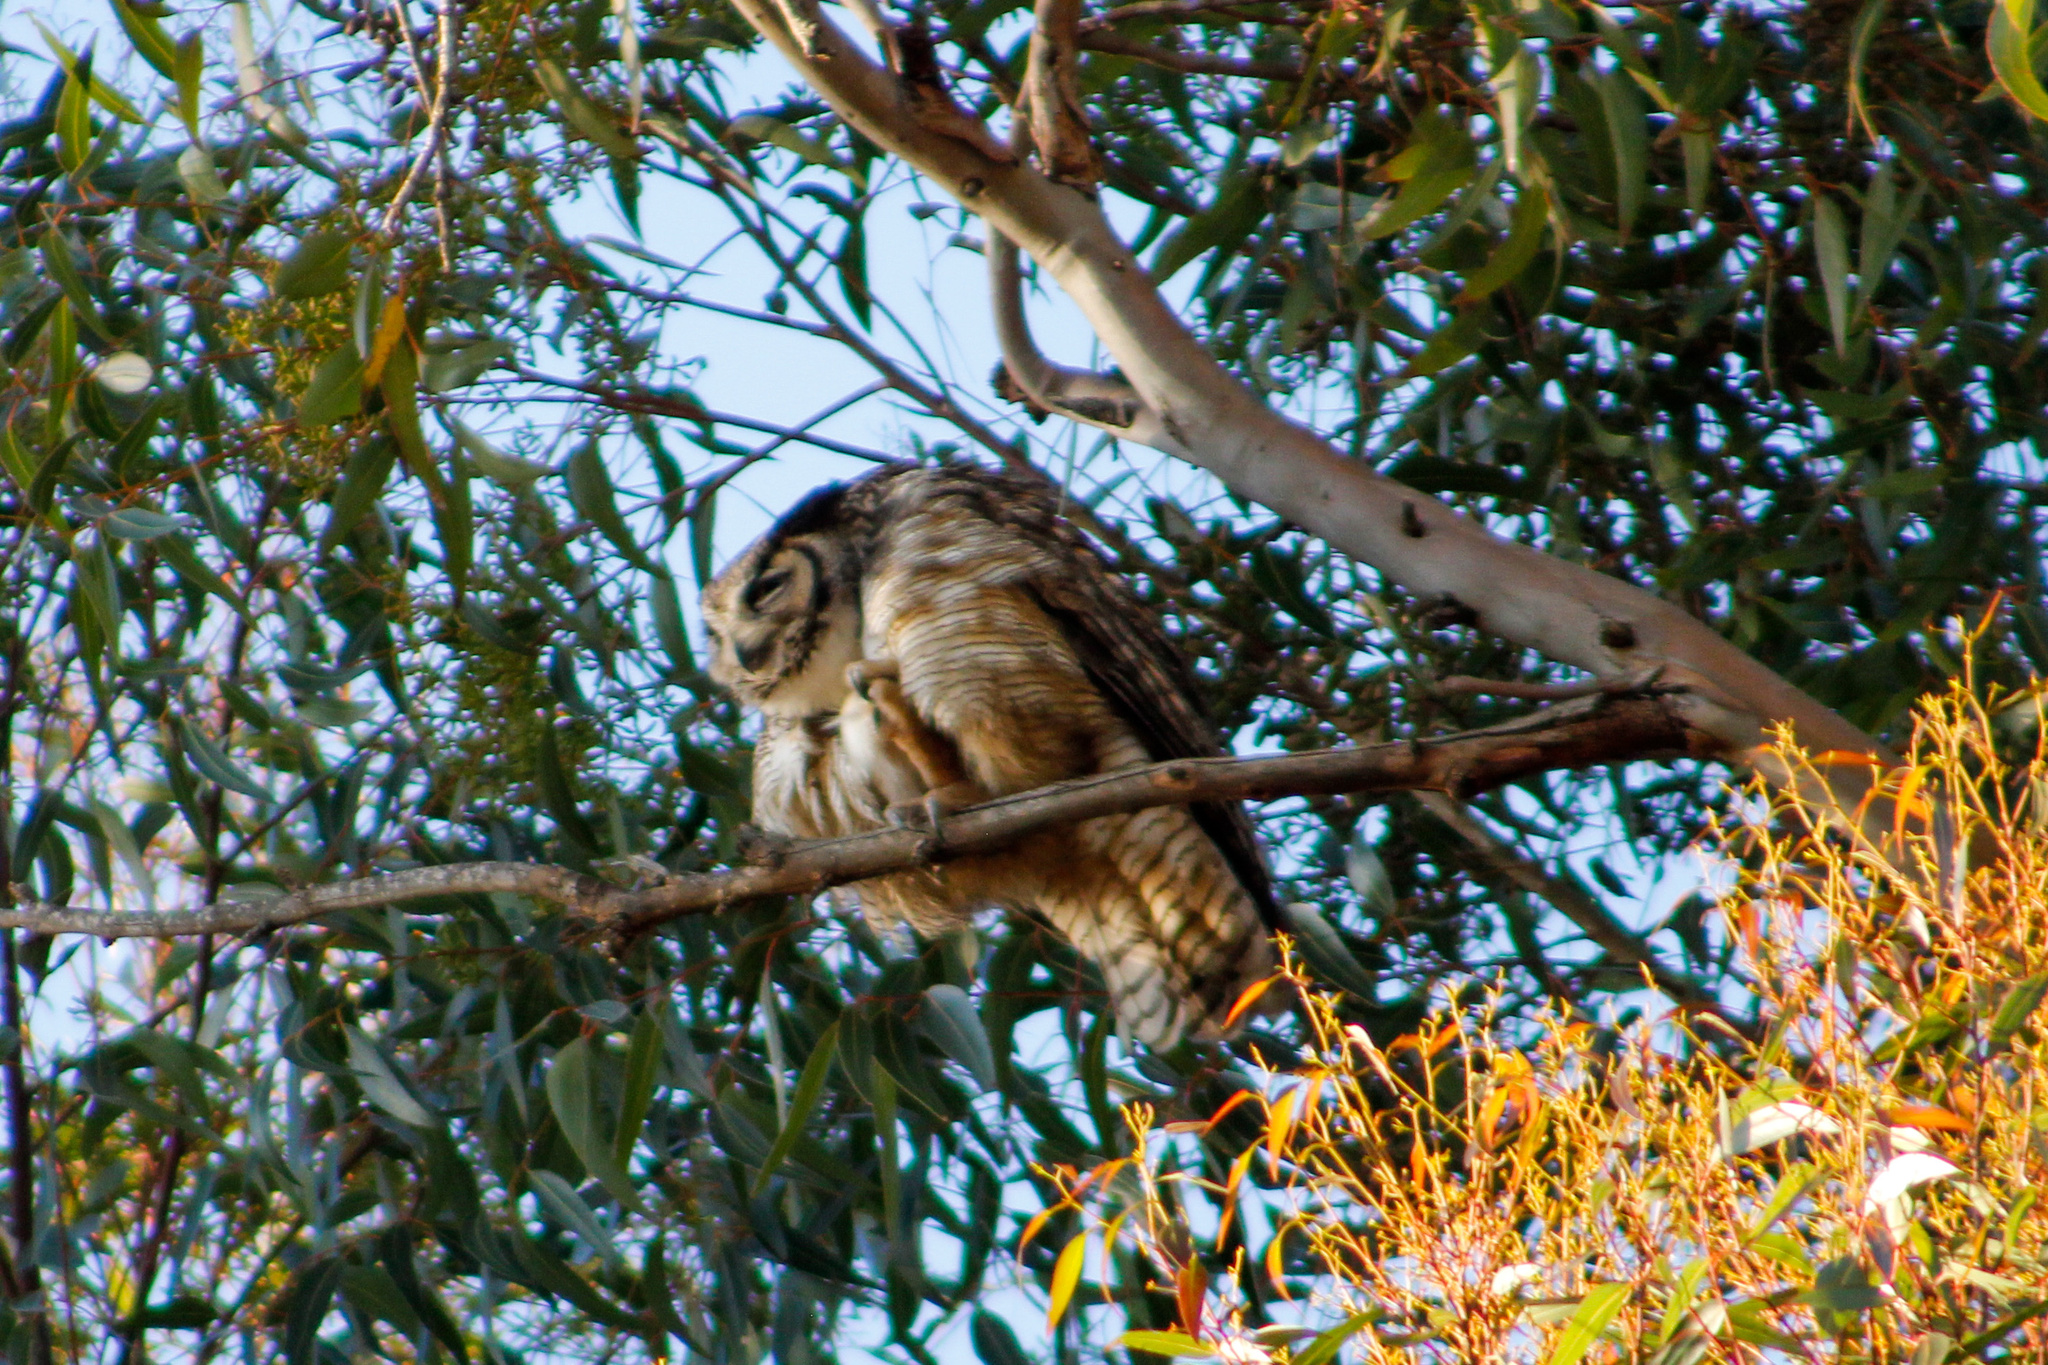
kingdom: Animalia
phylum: Chordata
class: Aves
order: Strigiformes
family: Strigidae
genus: Bubo
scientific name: Bubo virginianus
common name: Great horned owl
